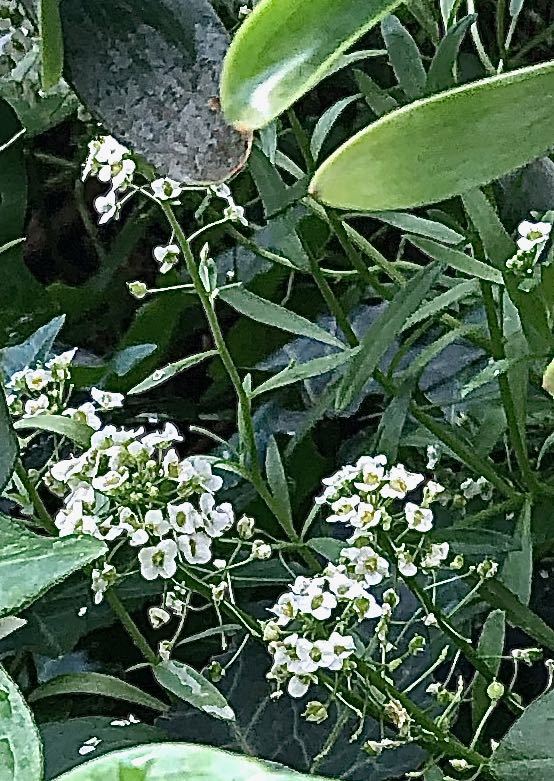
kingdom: Plantae
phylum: Tracheophyta
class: Magnoliopsida
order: Brassicales
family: Brassicaceae
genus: Lobularia
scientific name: Lobularia maritima
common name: Sweet alison
